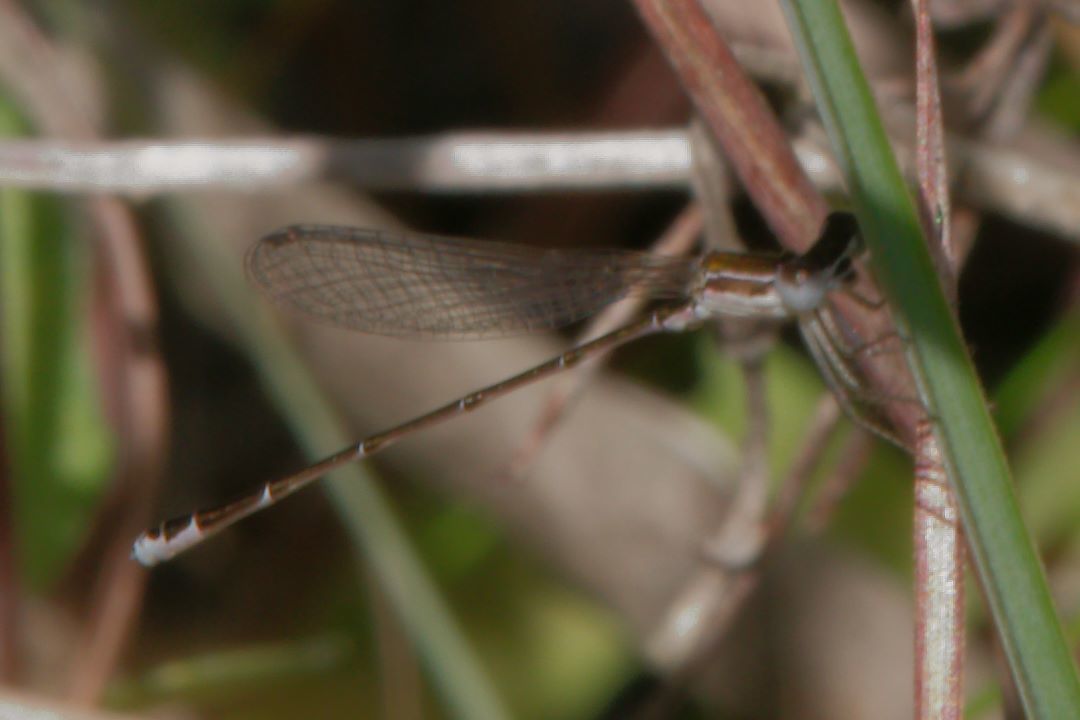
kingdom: Animalia
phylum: Arthropoda
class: Insecta
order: Odonata
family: Coenagrionidae
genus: Nehalennia
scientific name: Nehalennia pallidula
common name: Everglades sprite
